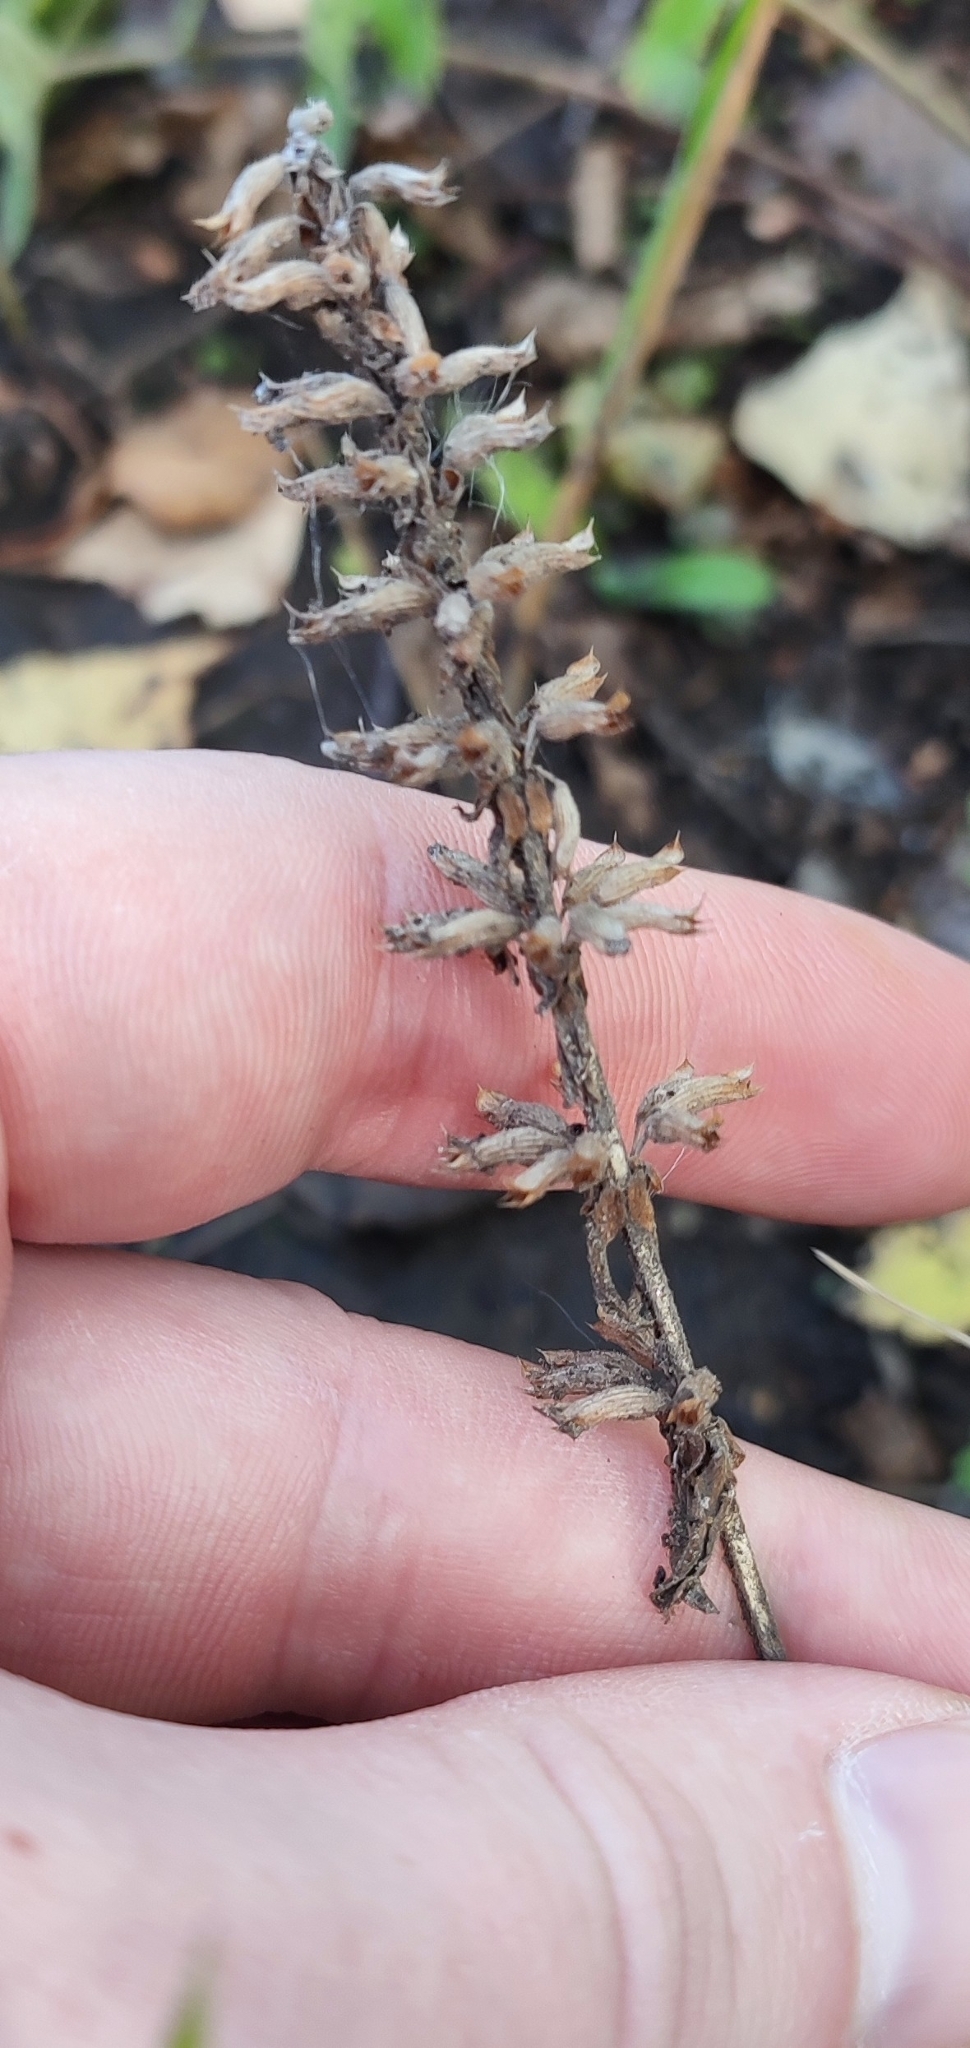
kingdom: Plantae
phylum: Tracheophyta
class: Magnoliopsida
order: Lamiales
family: Lamiaceae
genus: Dracocephalum
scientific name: Dracocephalum thymiflorum
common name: Thymeleaf dragonhead
